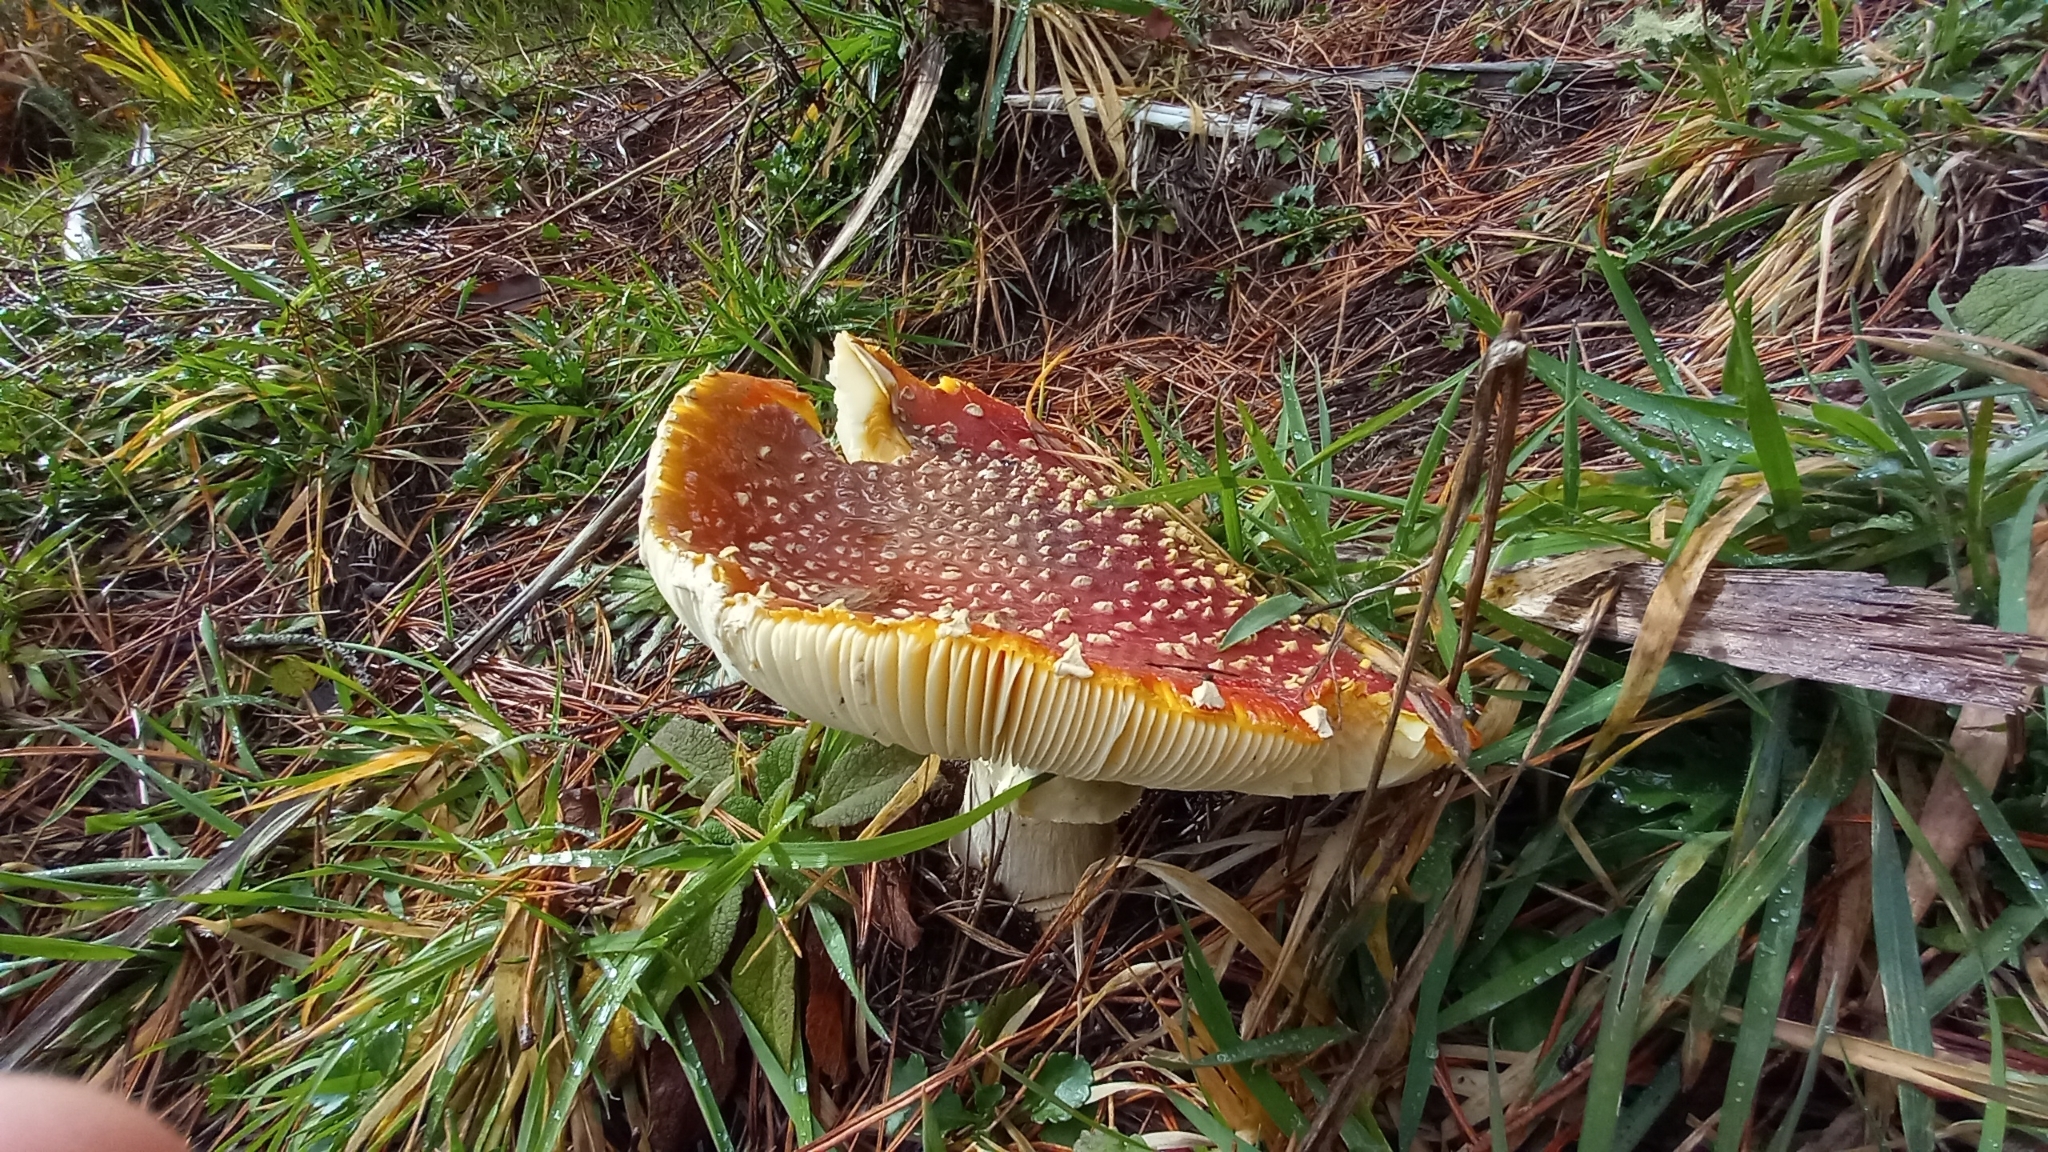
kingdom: Fungi
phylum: Basidiomycota
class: Agaricomycetes
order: Agaricales
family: Amanitaceae
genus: Amanita
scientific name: Amanita muscaria
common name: Fly agaric
